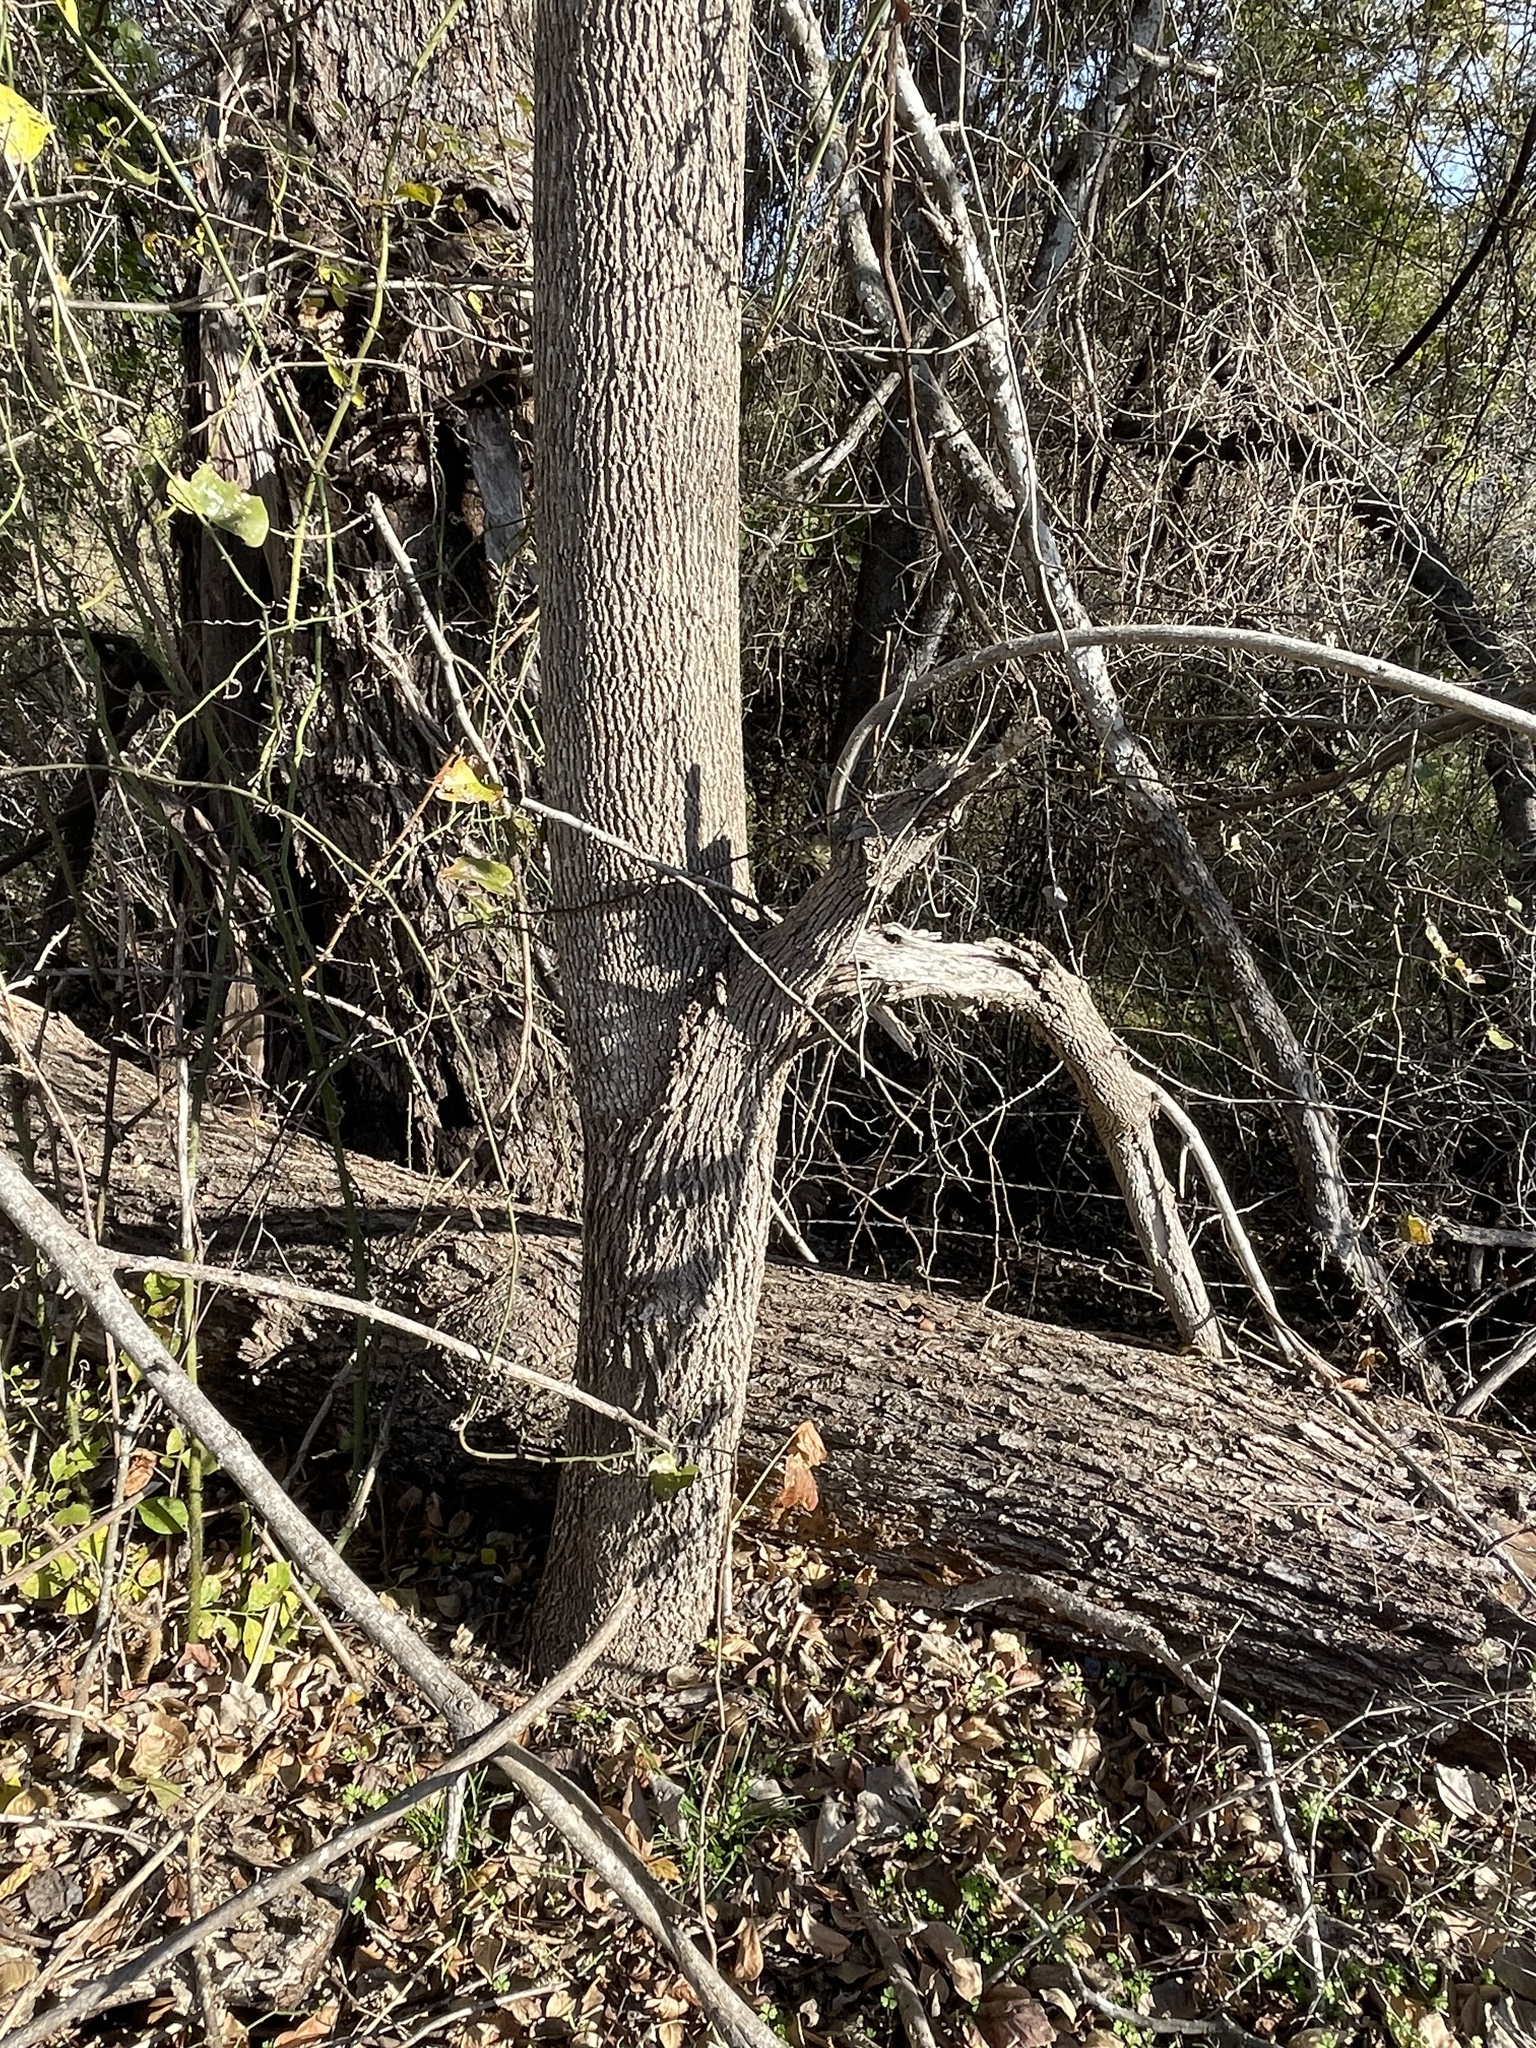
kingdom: Plantae
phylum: Tracheophyta
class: Magnoliopsida
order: Lamiales
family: Oleaceae
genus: Fraxinus
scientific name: Fraxinus pennsylvanica
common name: Green ash
